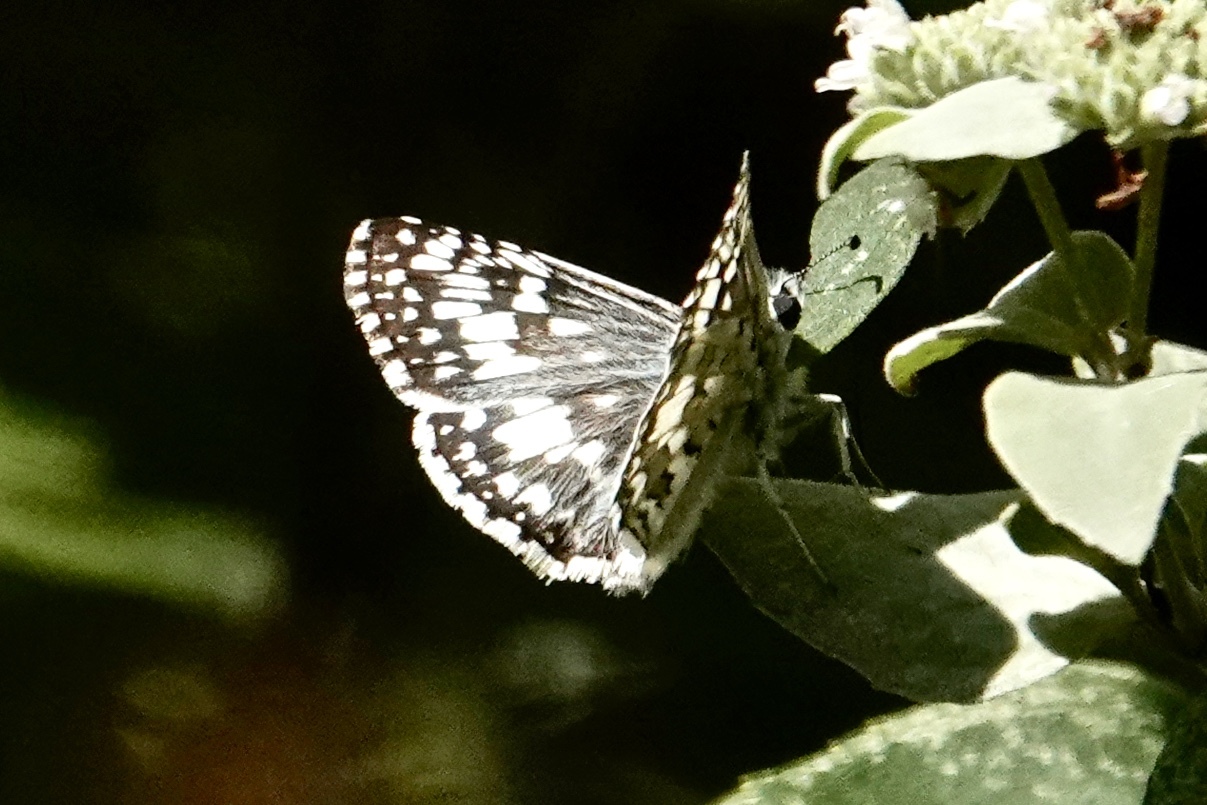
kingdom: Animalia
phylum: Arthropoda
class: Insecta
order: Lepidoptera
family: Hesperiidae
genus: Burnsius
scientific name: Burnsius communis
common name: Common checkered-skipper
